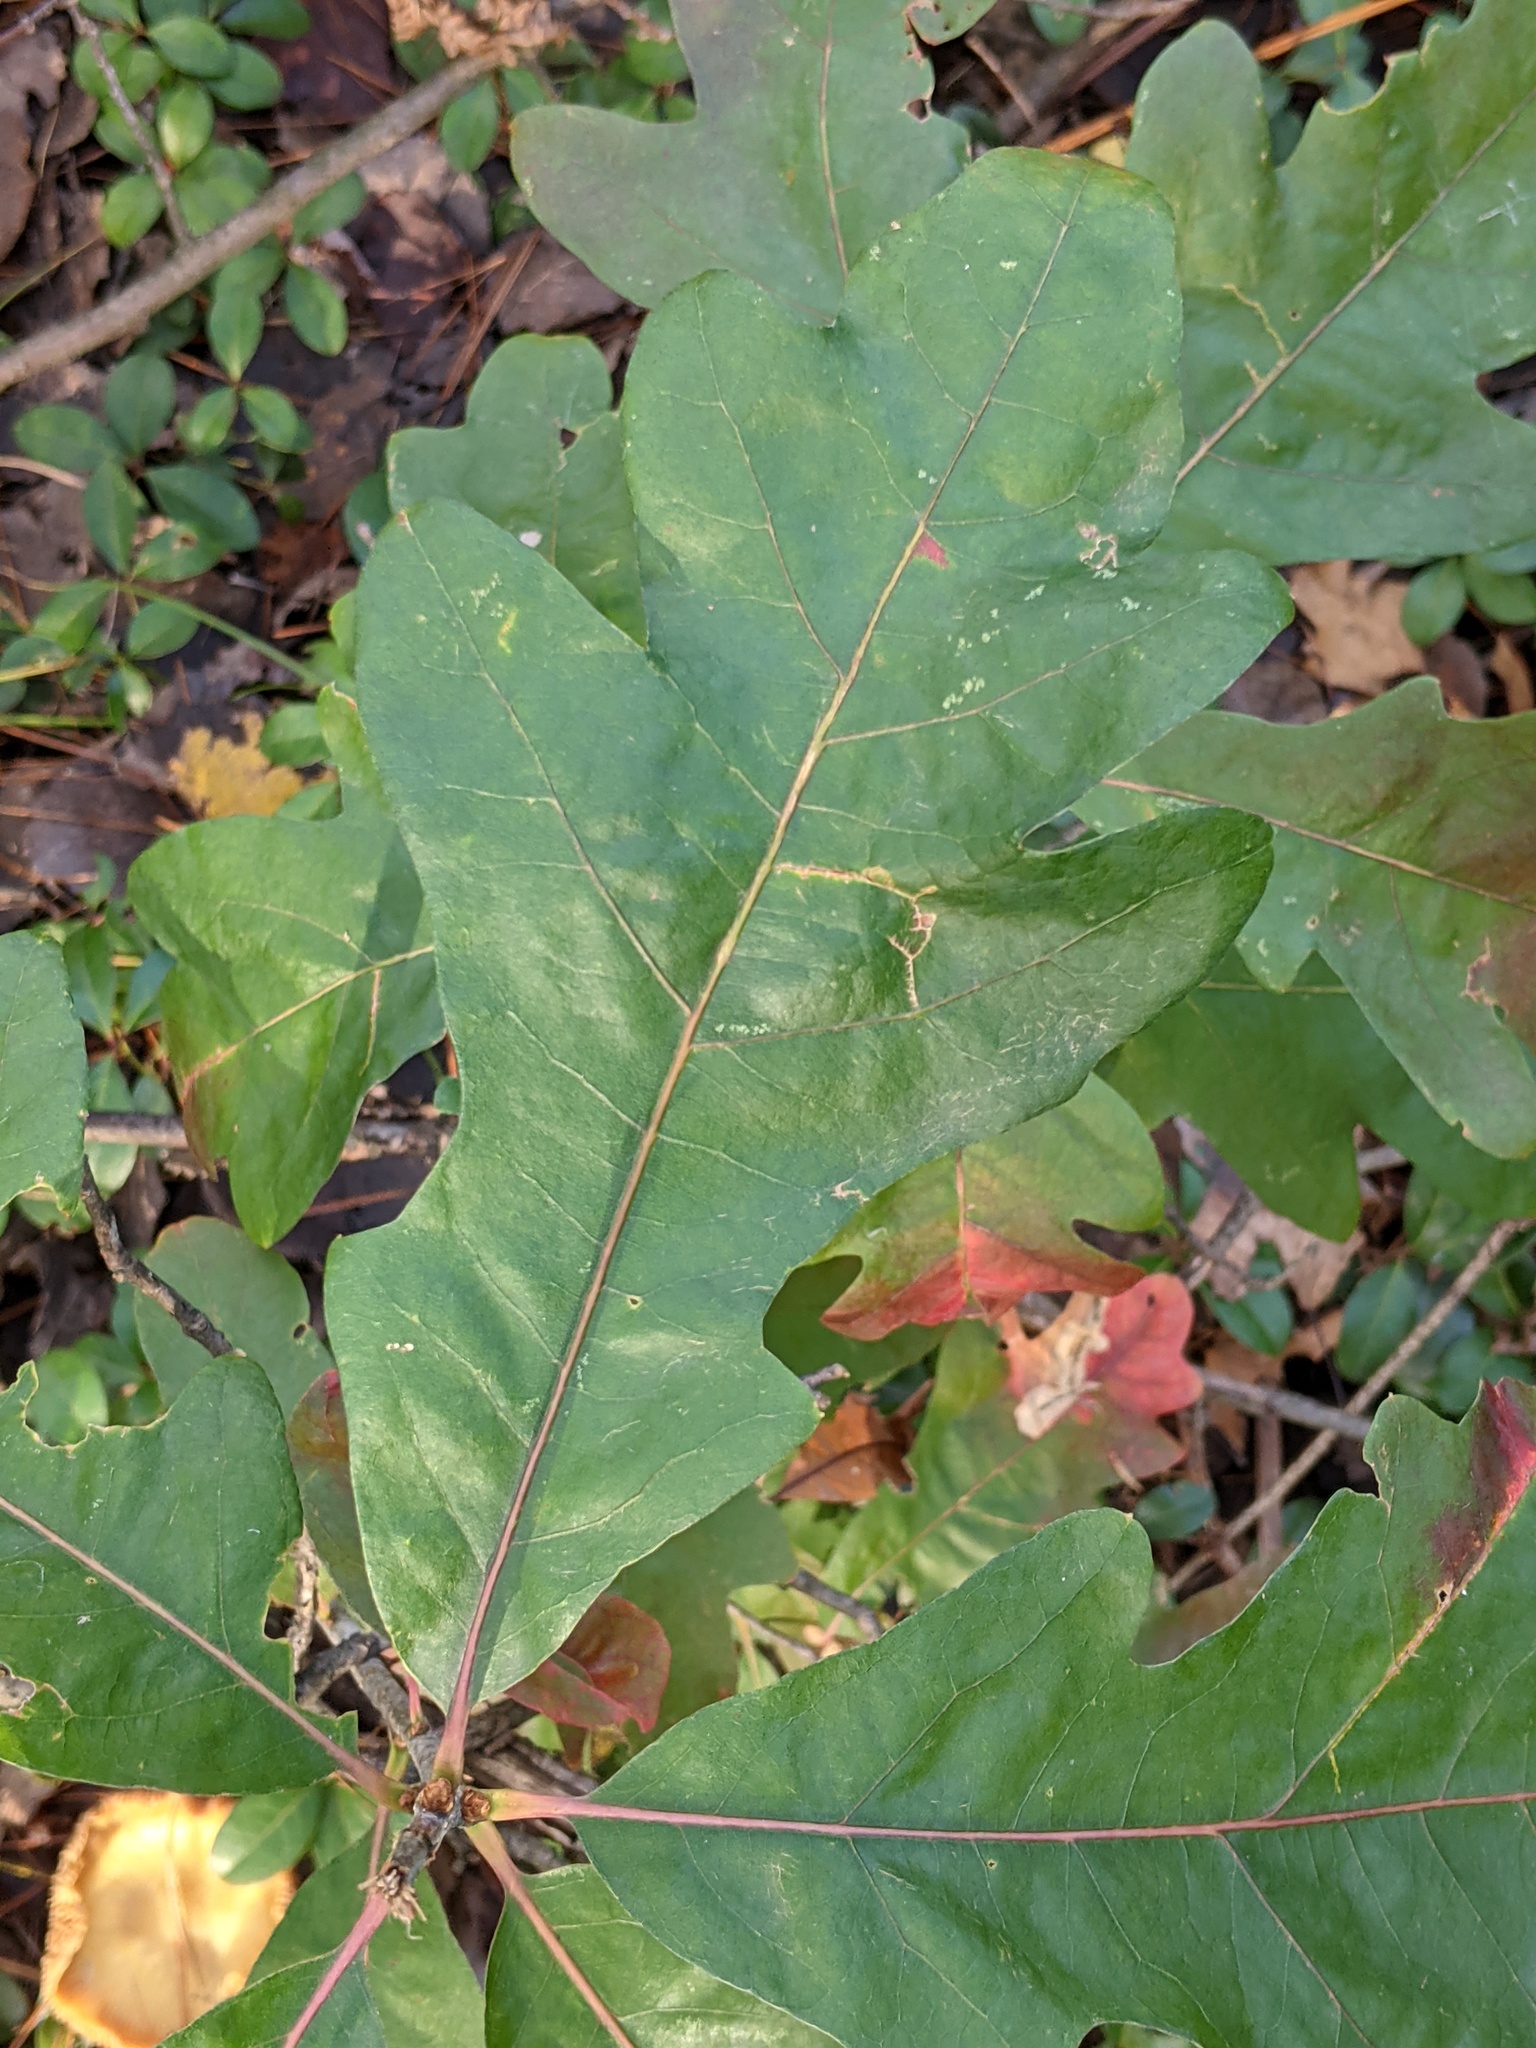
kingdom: Plantae
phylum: Tracheophyta
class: Magnoliopsida
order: Fagales
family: Fagaceae
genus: Quercus
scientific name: Quercus alba
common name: White oak
